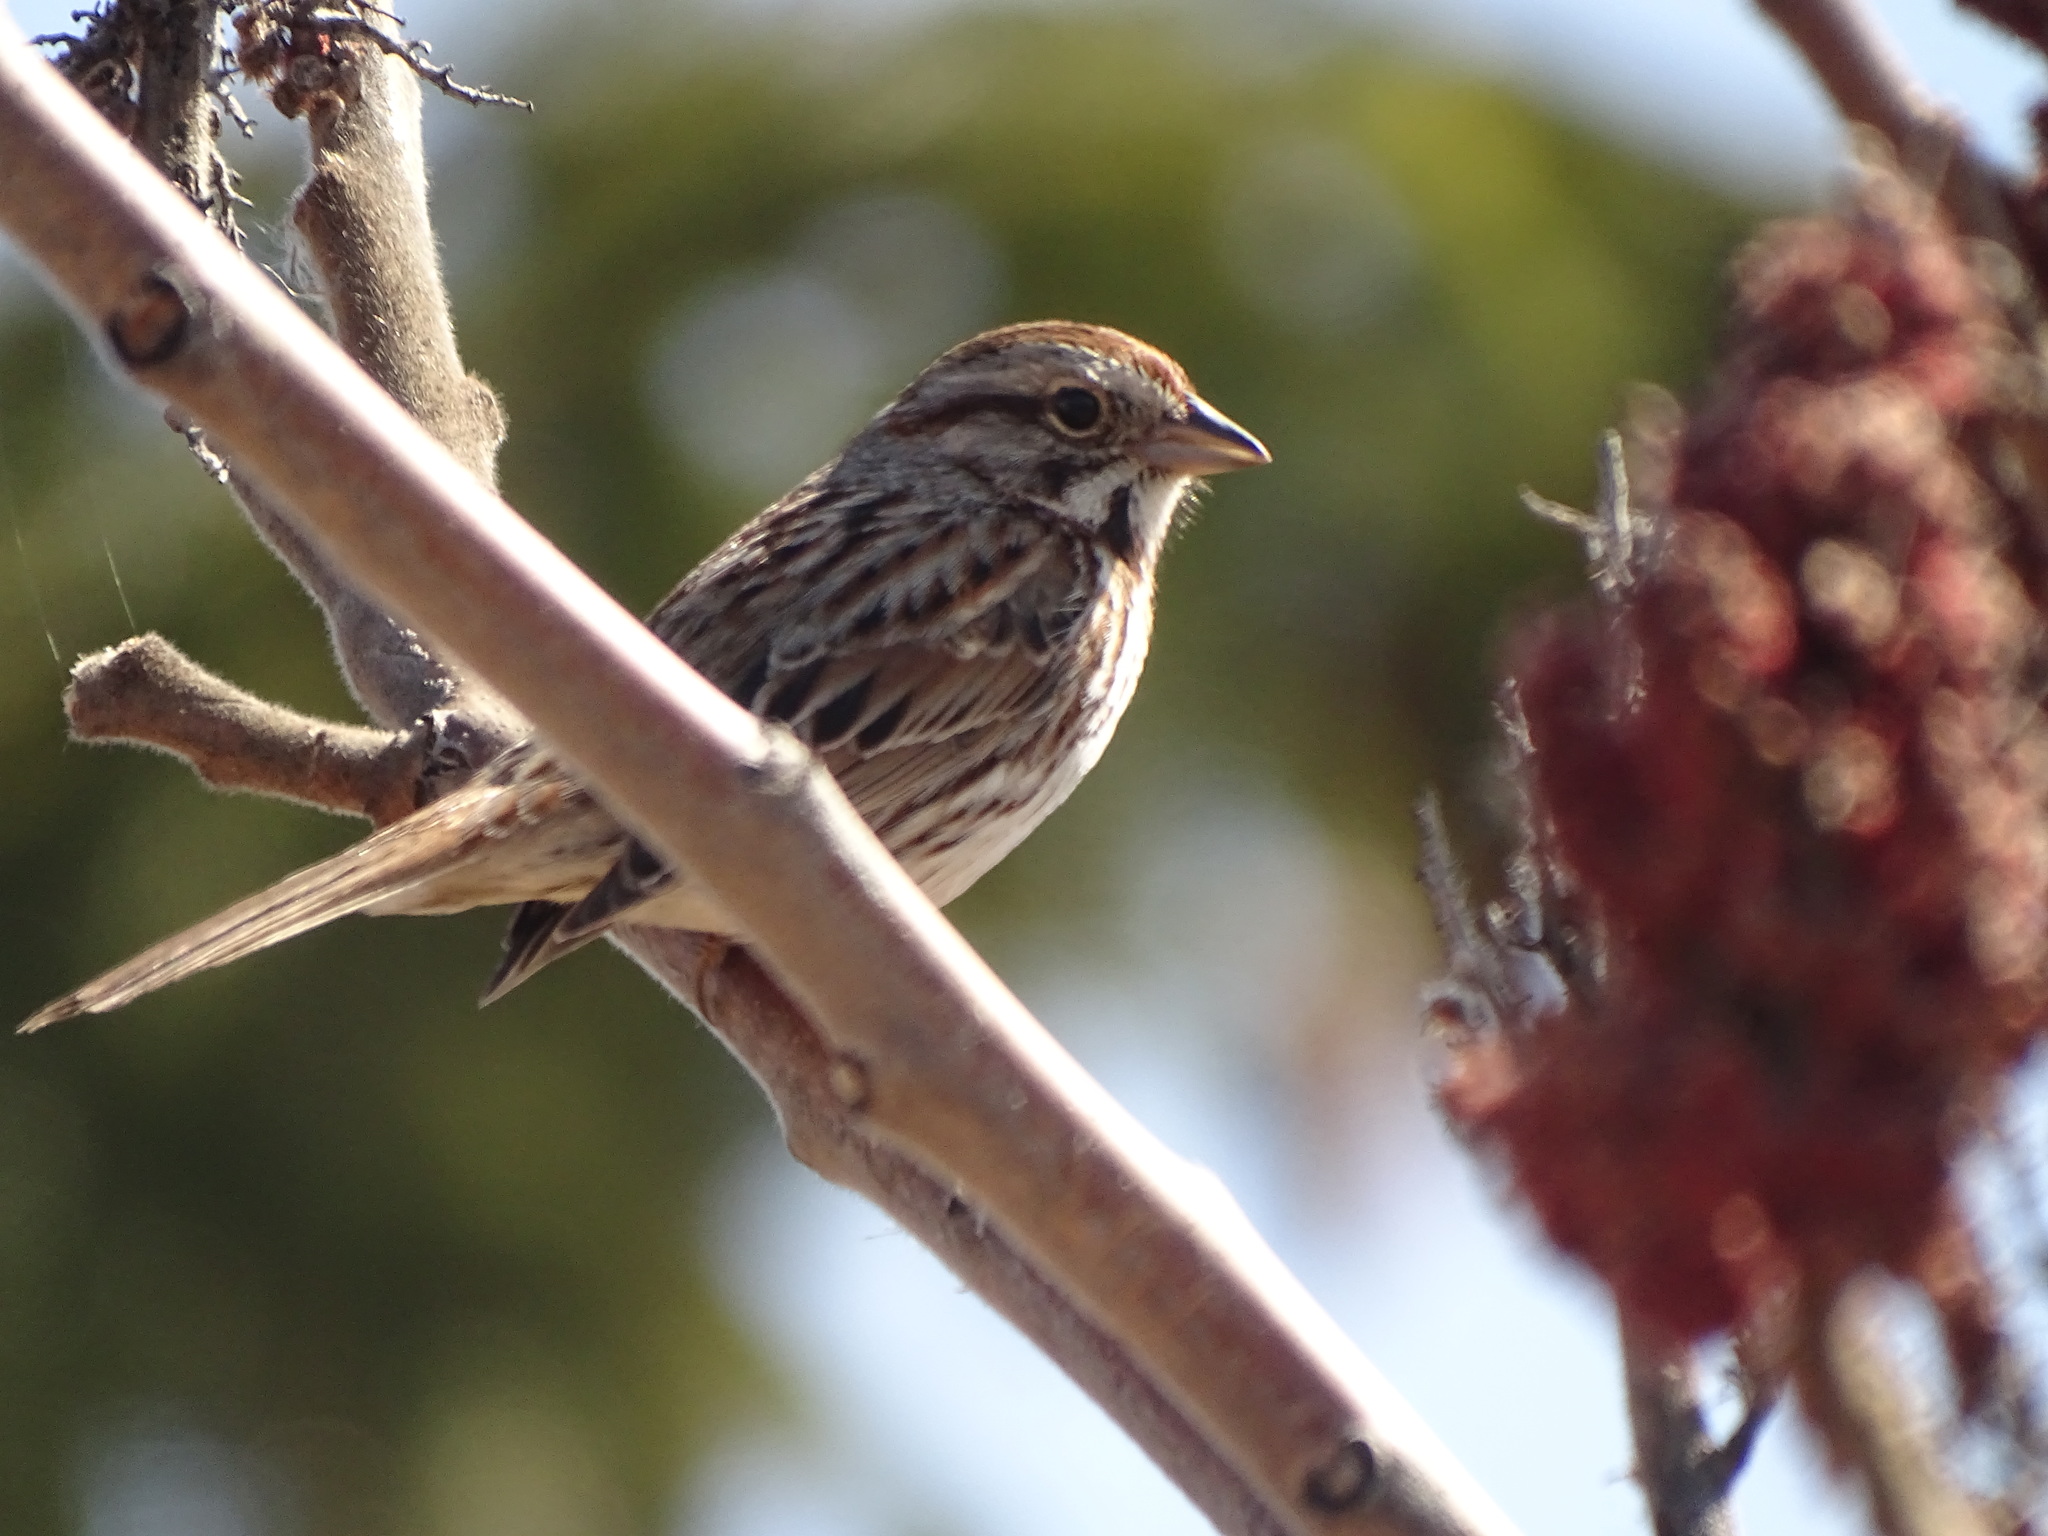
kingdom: Animalia
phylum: Chordata
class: Aves
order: Passeriformes
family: Passerellidae
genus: Melospiza
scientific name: Melospiza melodia
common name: Song sparrow
